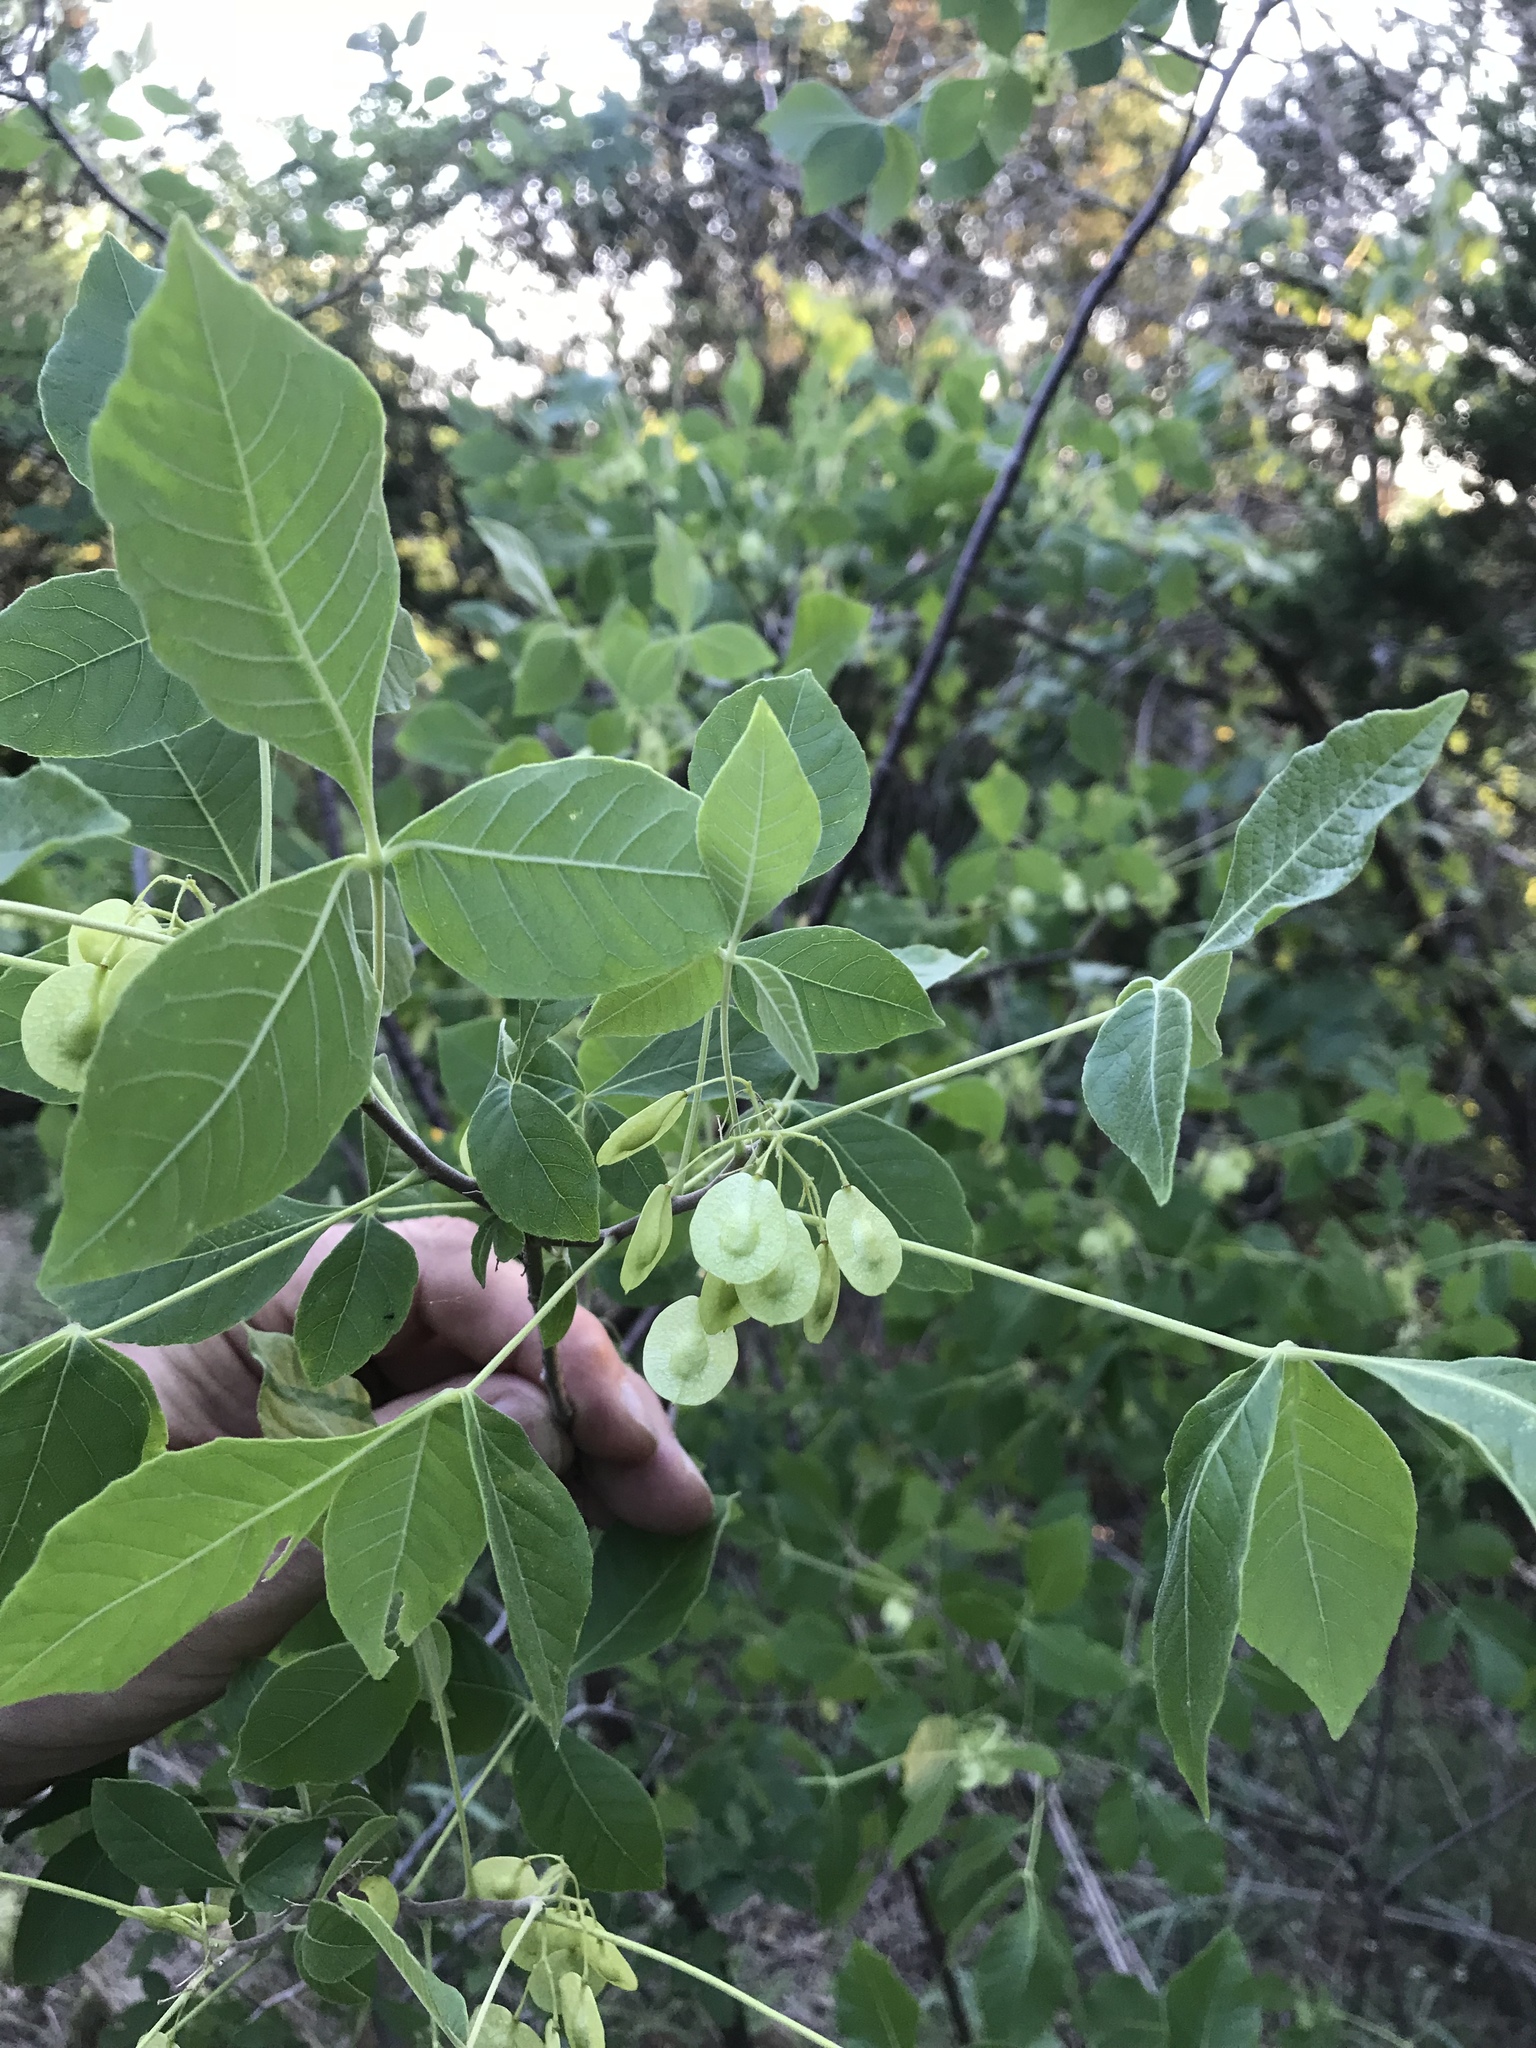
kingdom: Plantae
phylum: Tracheophyta
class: Magnoliopsida
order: Sapindales
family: Rutaceae
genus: Ptelea
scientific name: Ptelea trifoliata
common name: Common hop-tree
